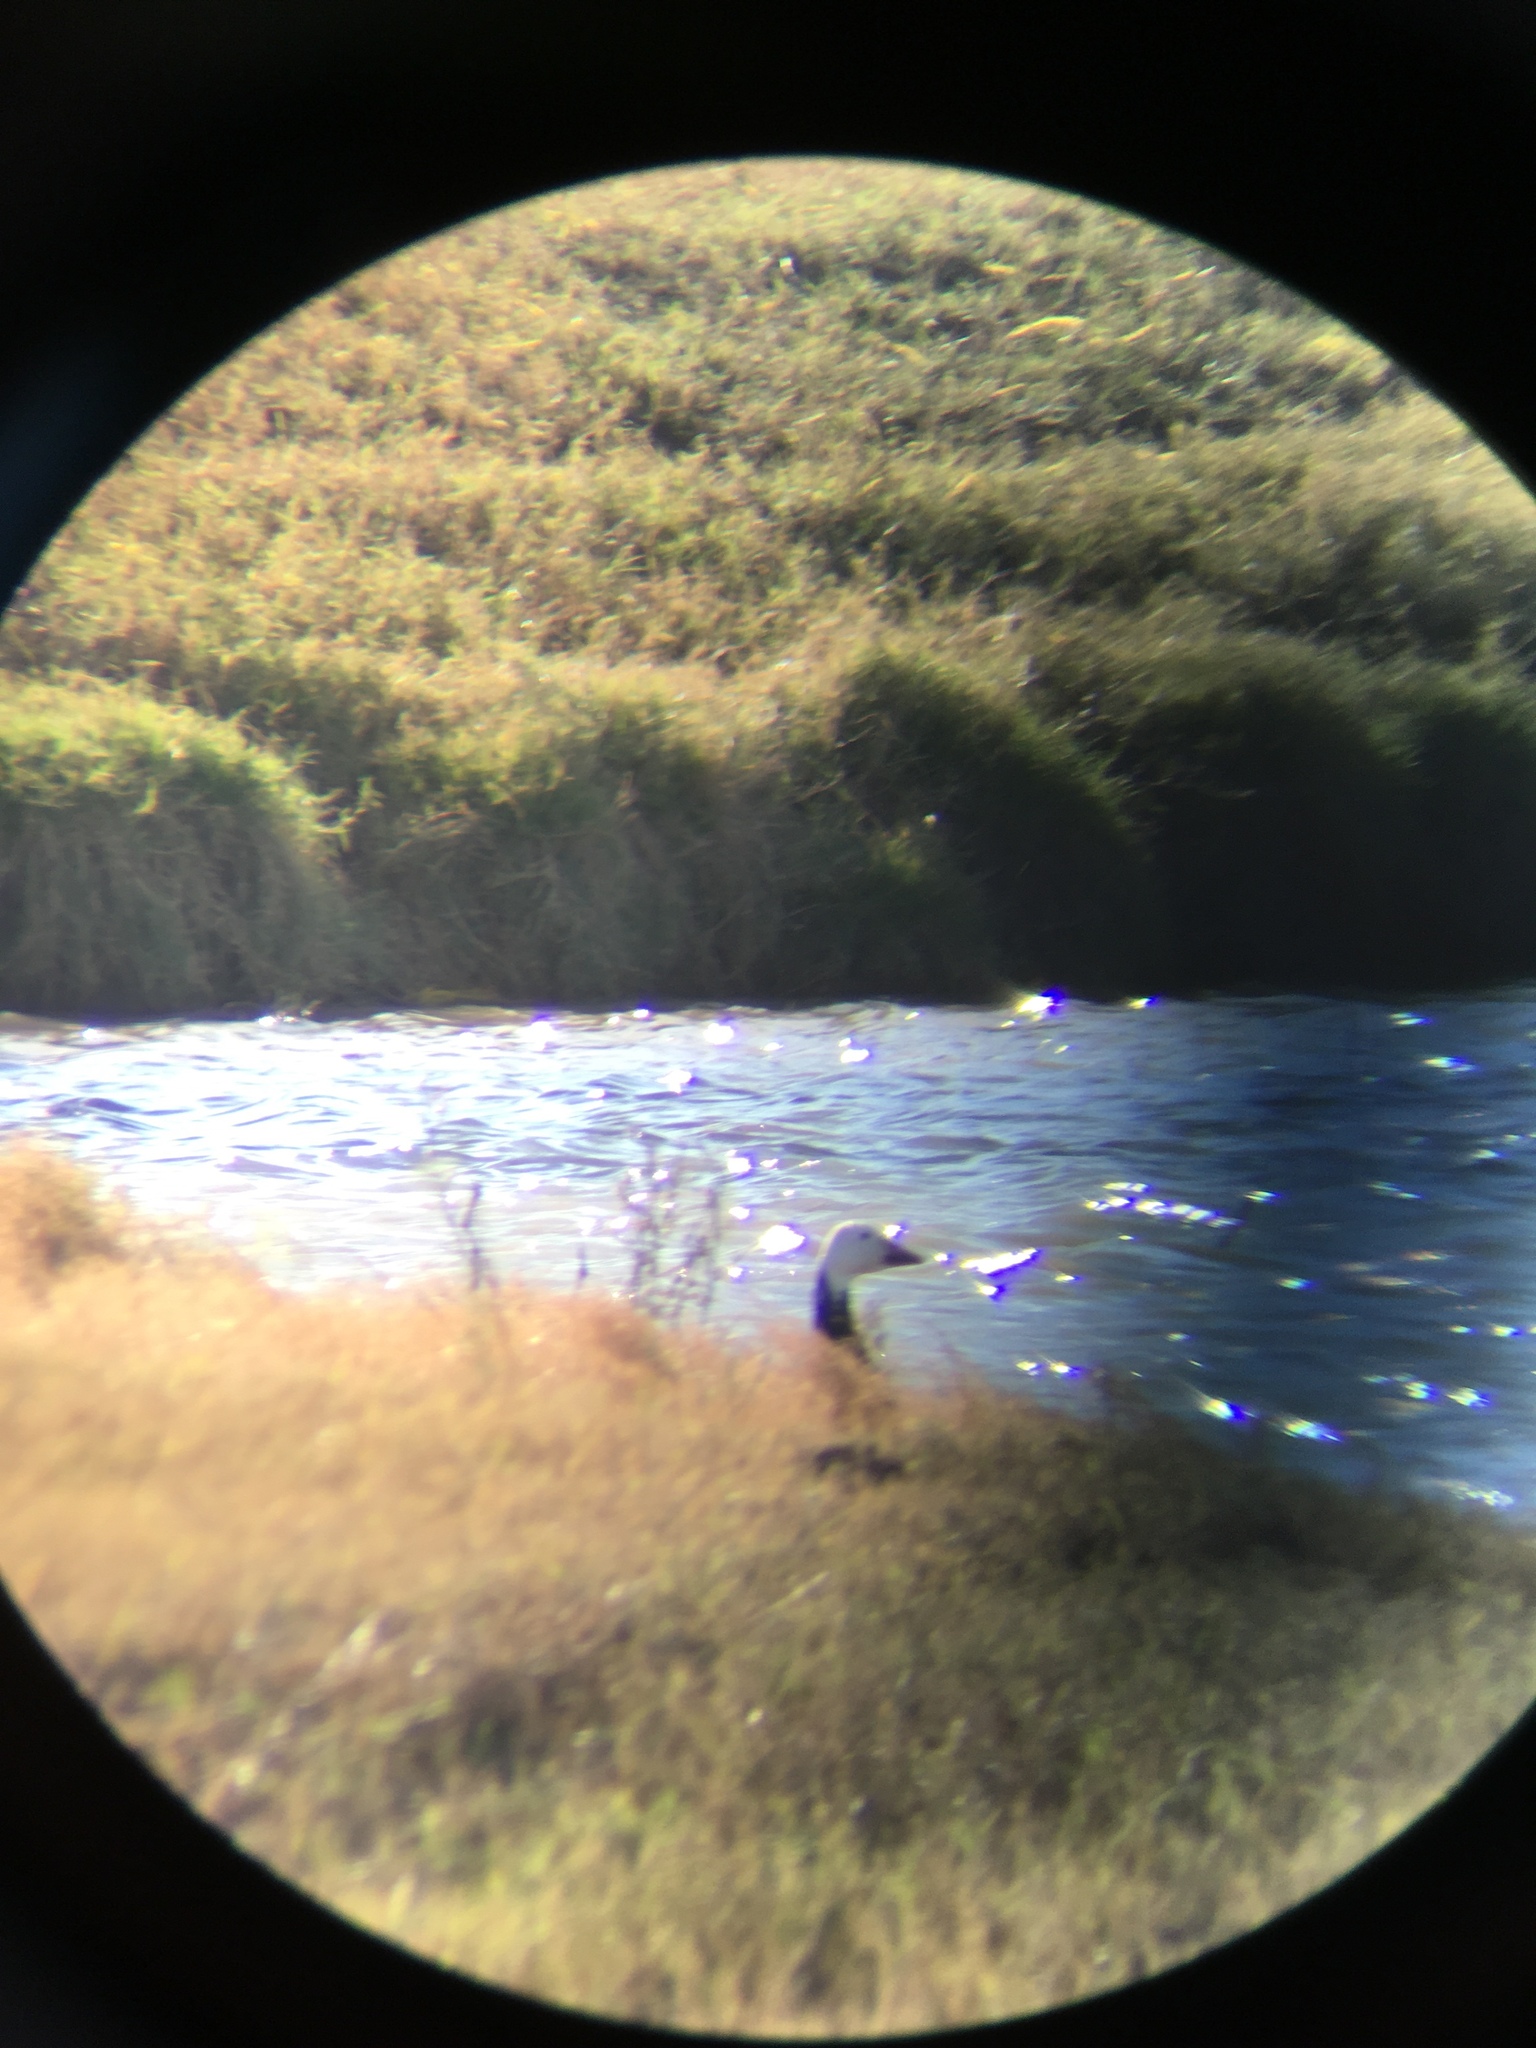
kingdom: Animalia
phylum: Chordata
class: Aves
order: Anseriformes
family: Anatidae
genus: Anser
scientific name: Anser caerulescens
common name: Snow goose
